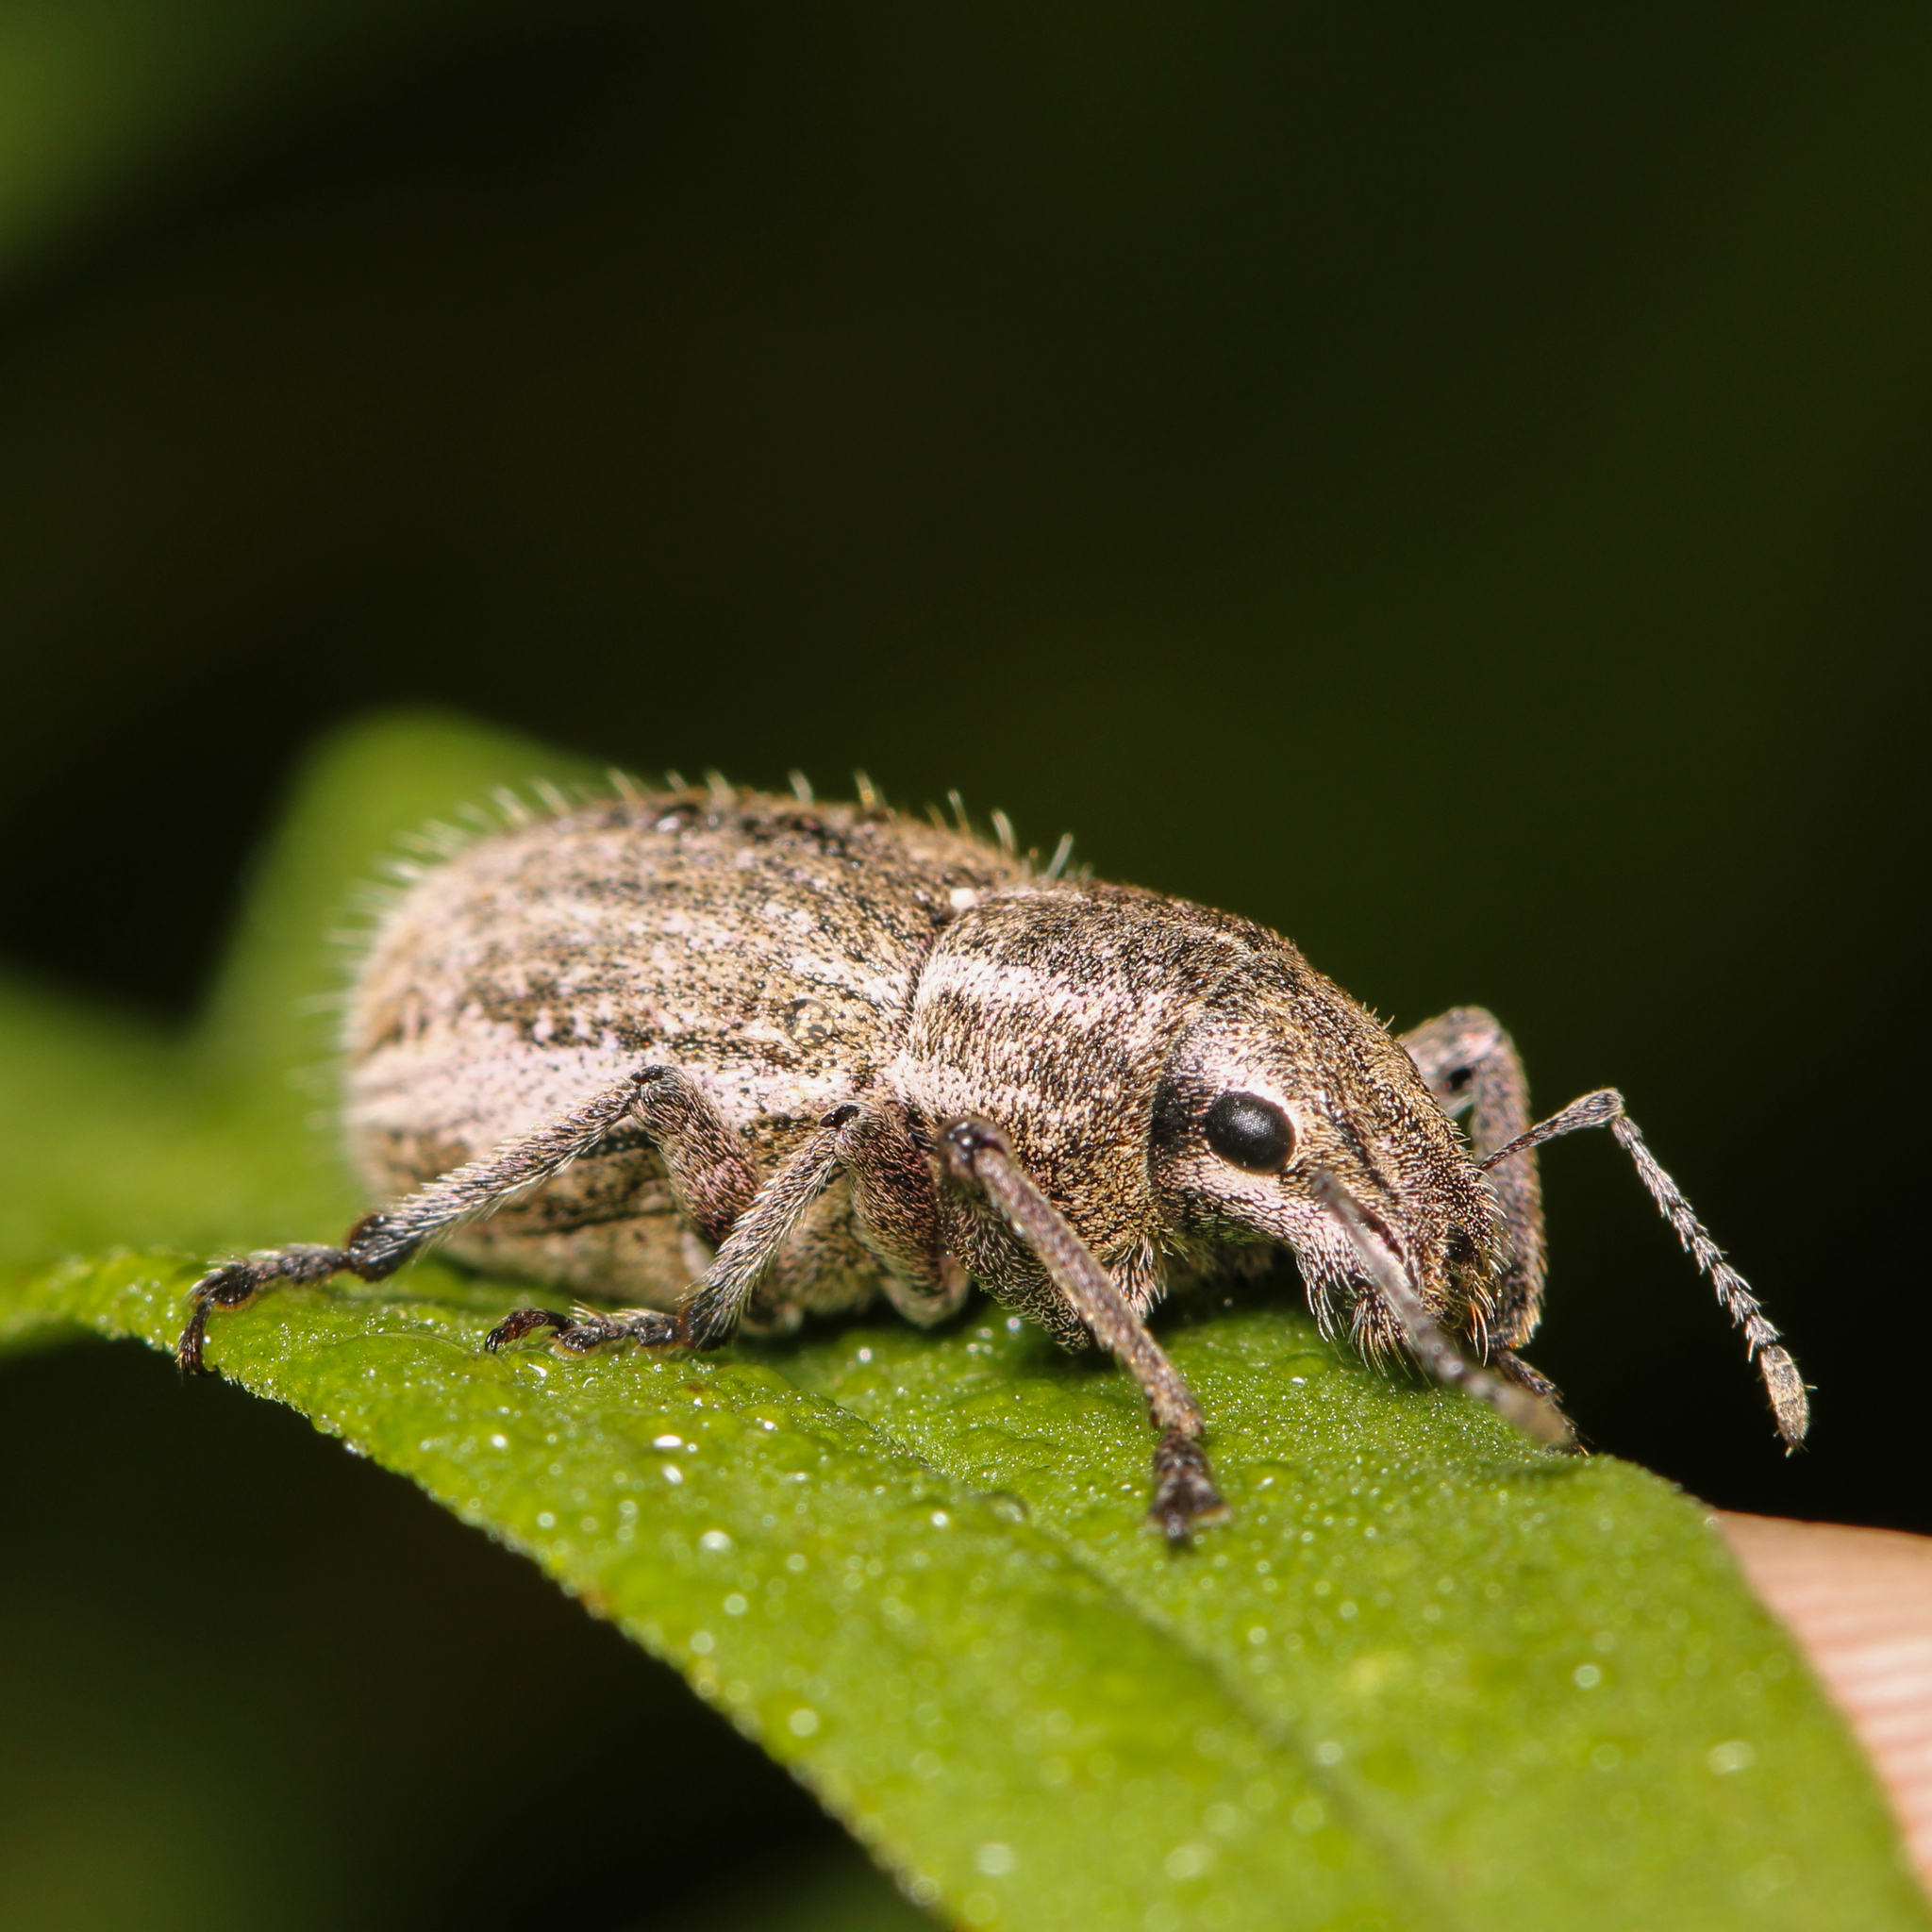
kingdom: Animalia
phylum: Arthropoda
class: Insecta
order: Coleoptera
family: Curculionidae
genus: Naupactus
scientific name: Naupactus leucoloma
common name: Whitefringed beetle
